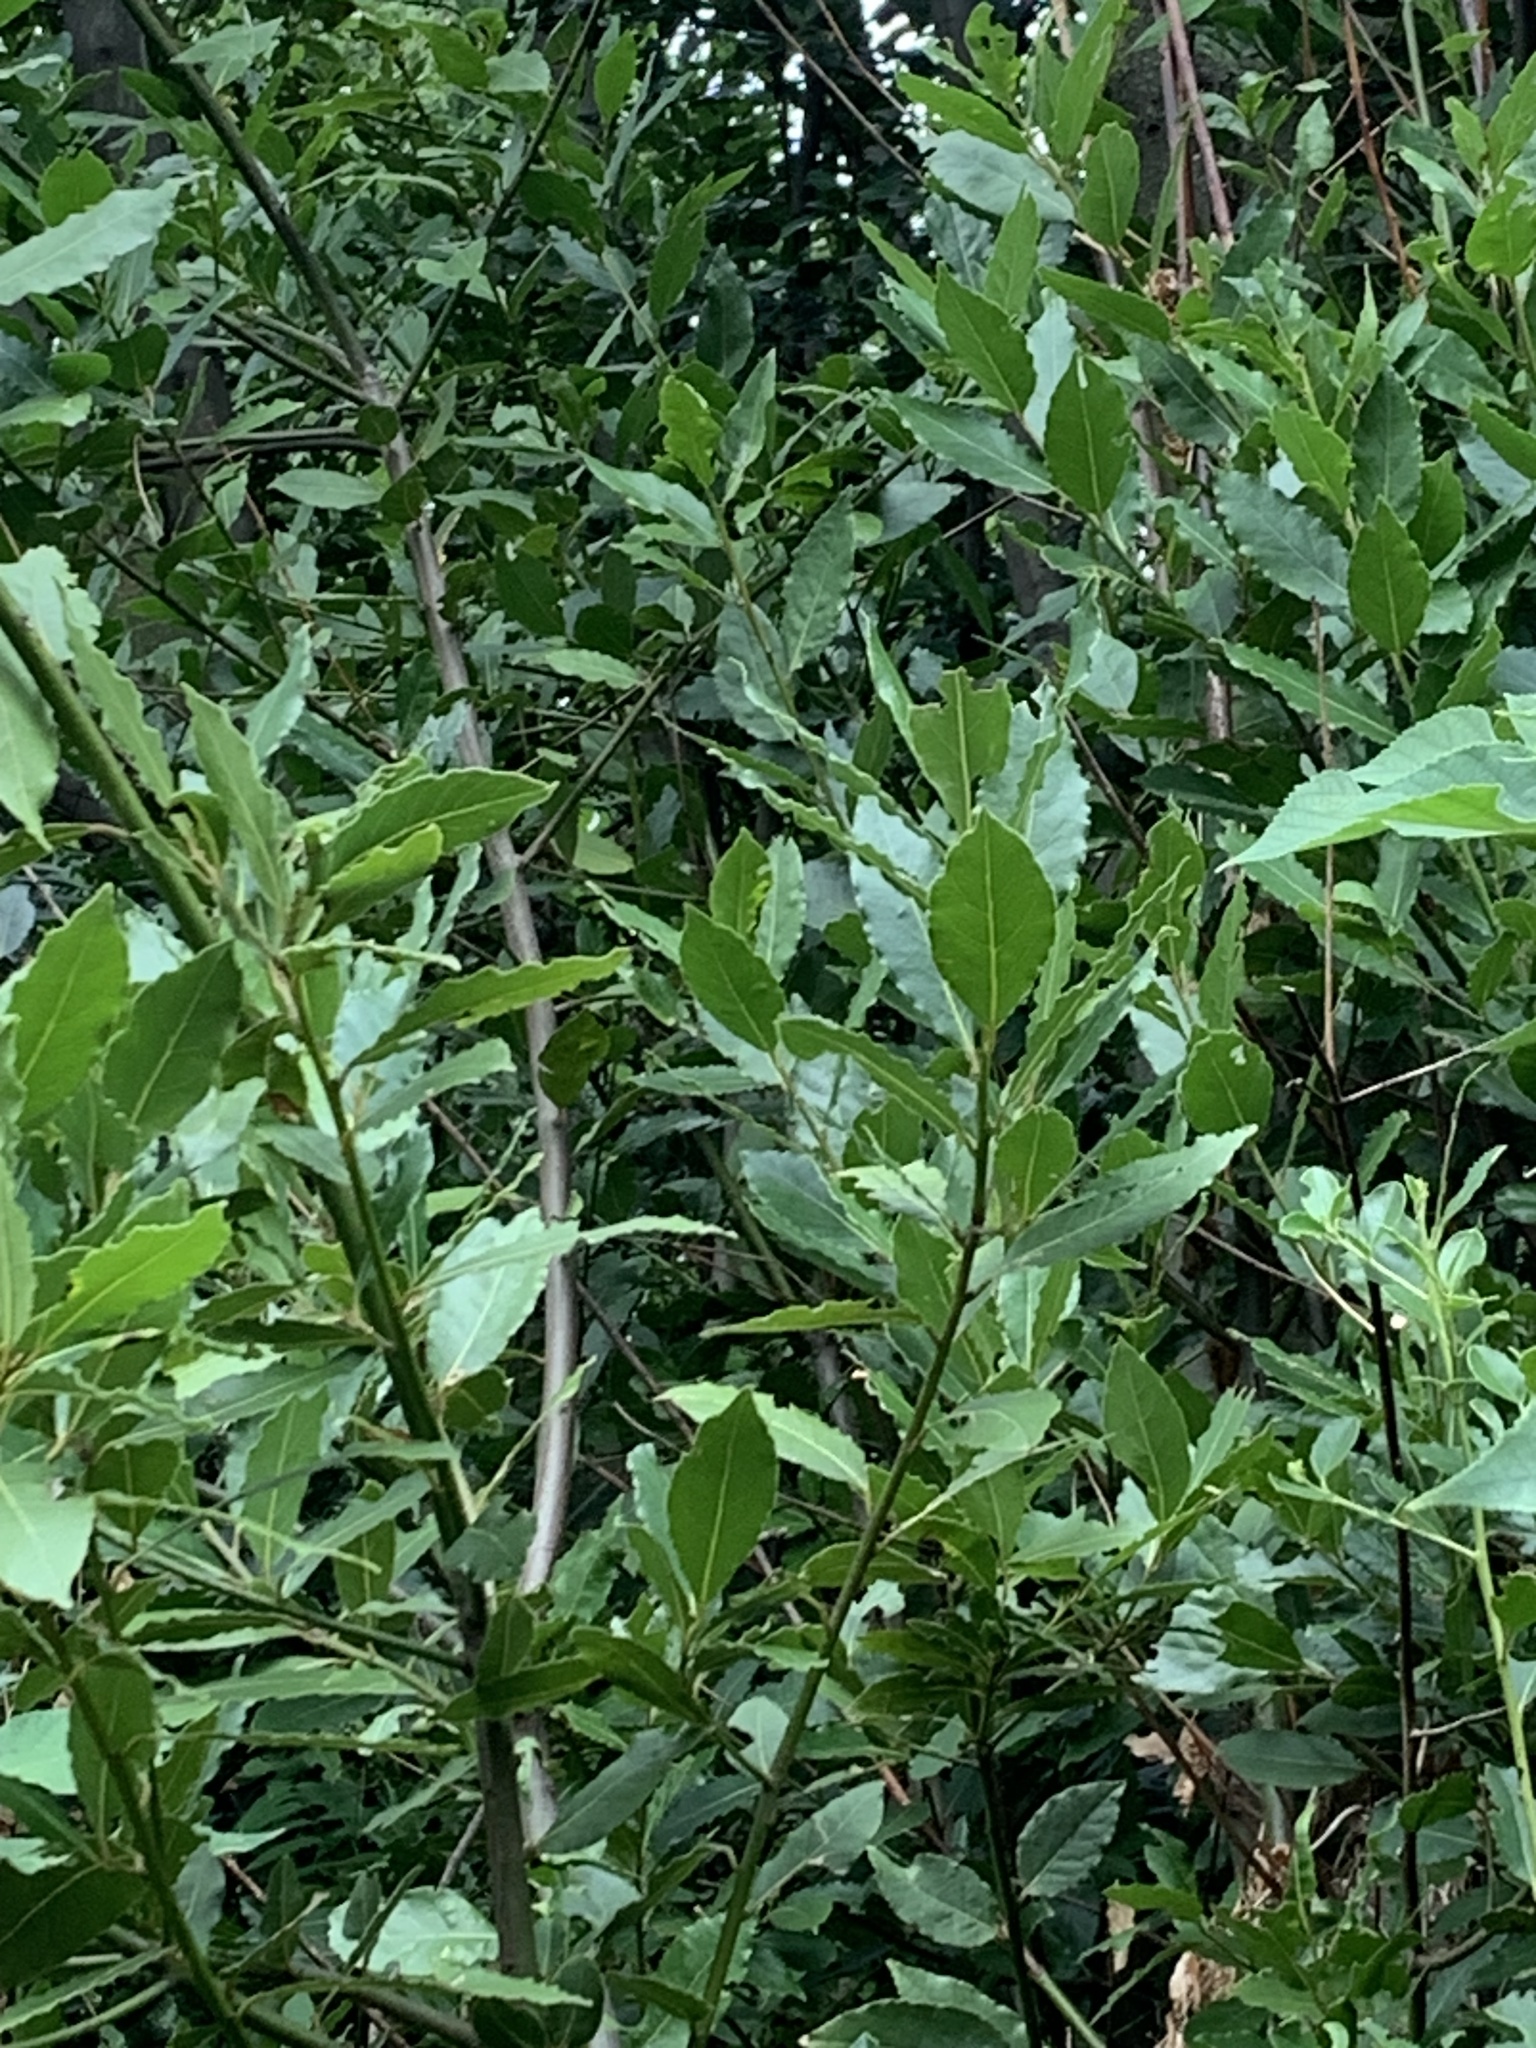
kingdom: Plantae
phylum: Tracheophyta
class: Magnoliopsida
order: Laurales
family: Lauraceae
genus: Laurus
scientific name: Laurus nobilis
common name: Bay
